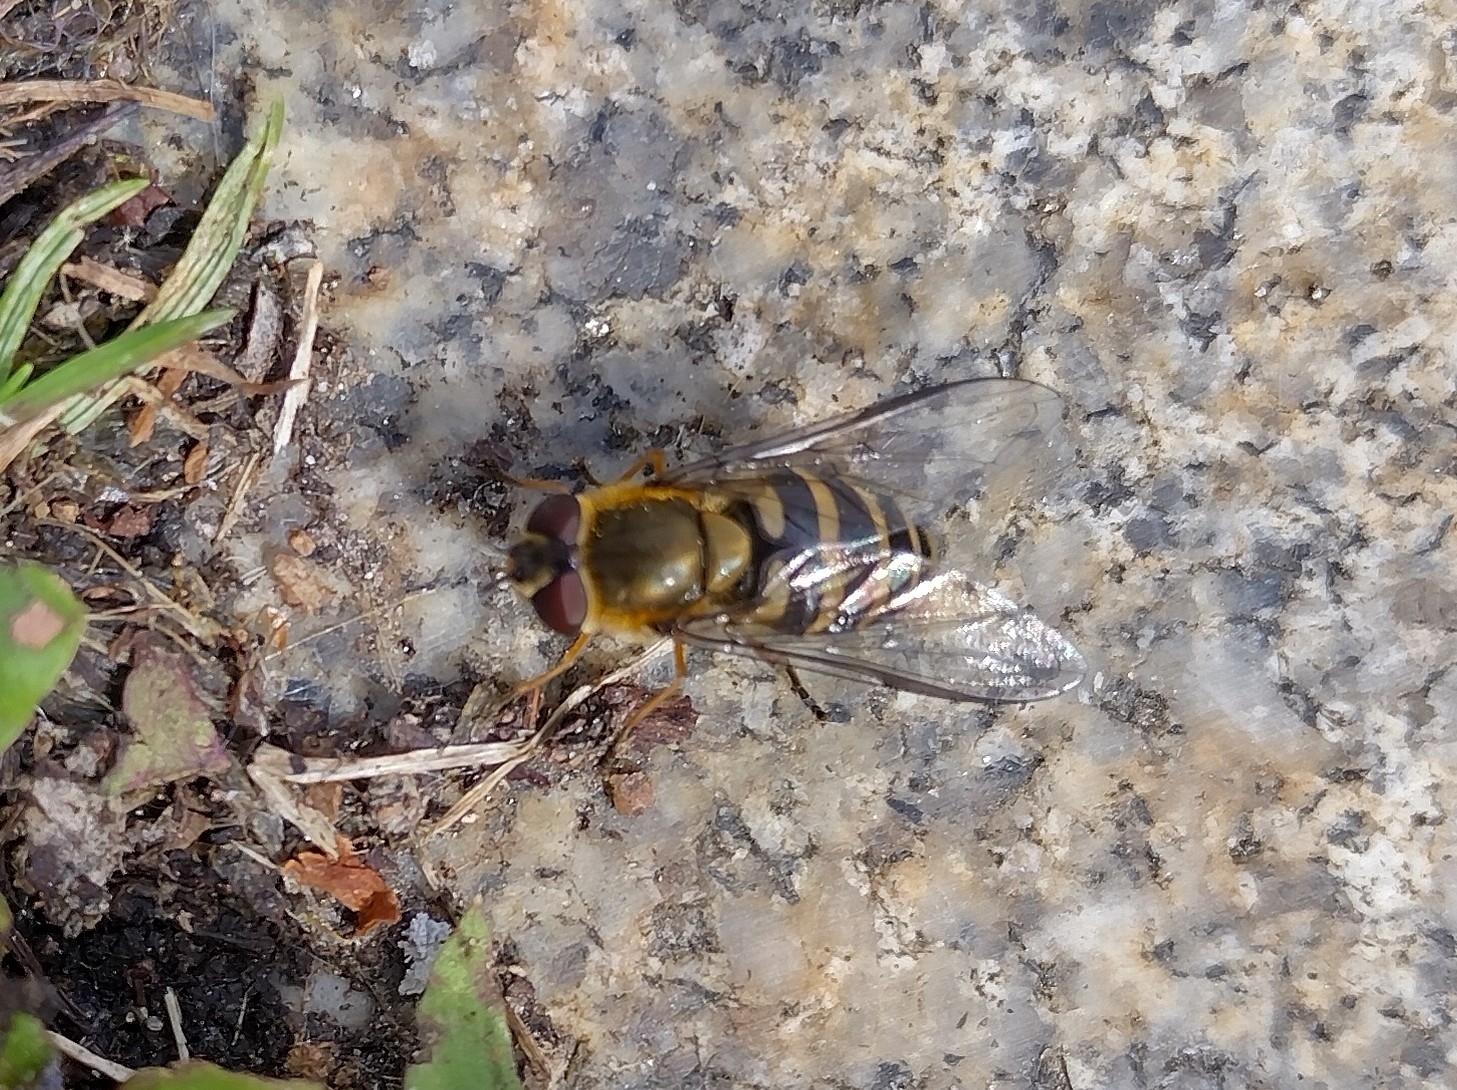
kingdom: Animalia
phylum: Arthropoda
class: Insecta
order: Diptera
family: Syrphidae
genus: Syrphus
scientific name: Syrphus torvus
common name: Hairy-eyed flower fly
